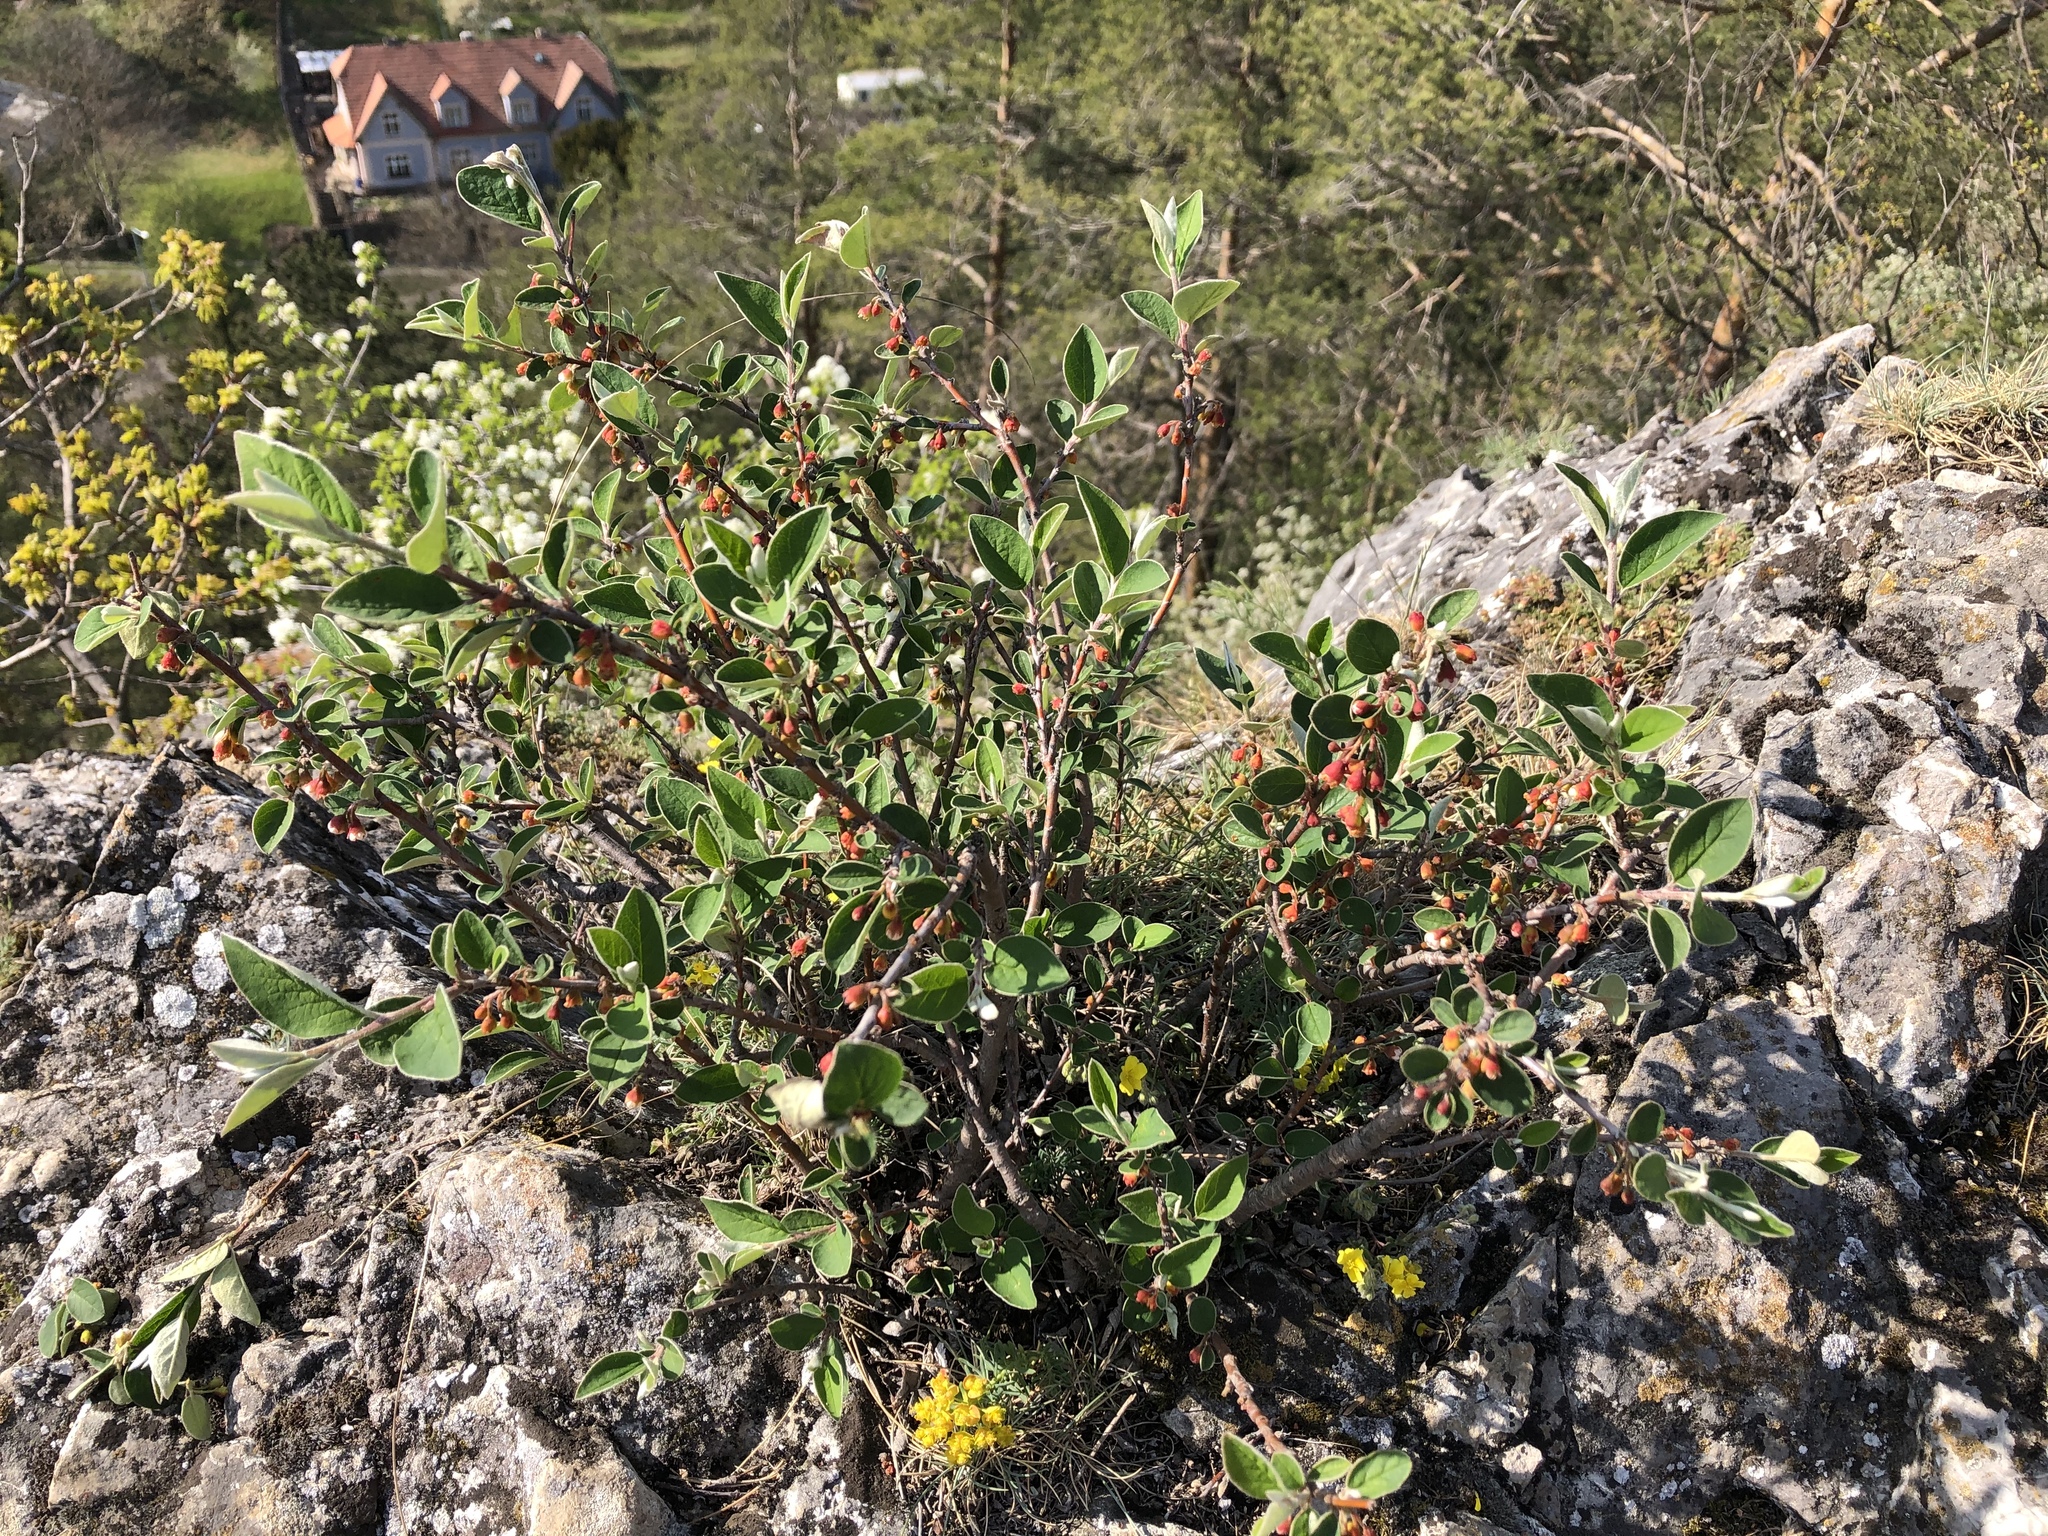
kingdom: Plantae
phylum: Tracheophyta
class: Magnoliopsida
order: Rosales
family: Rosaceae
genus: Cotoneaster
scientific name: Cotoneaster integerrimus
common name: Wild cotoneaster
